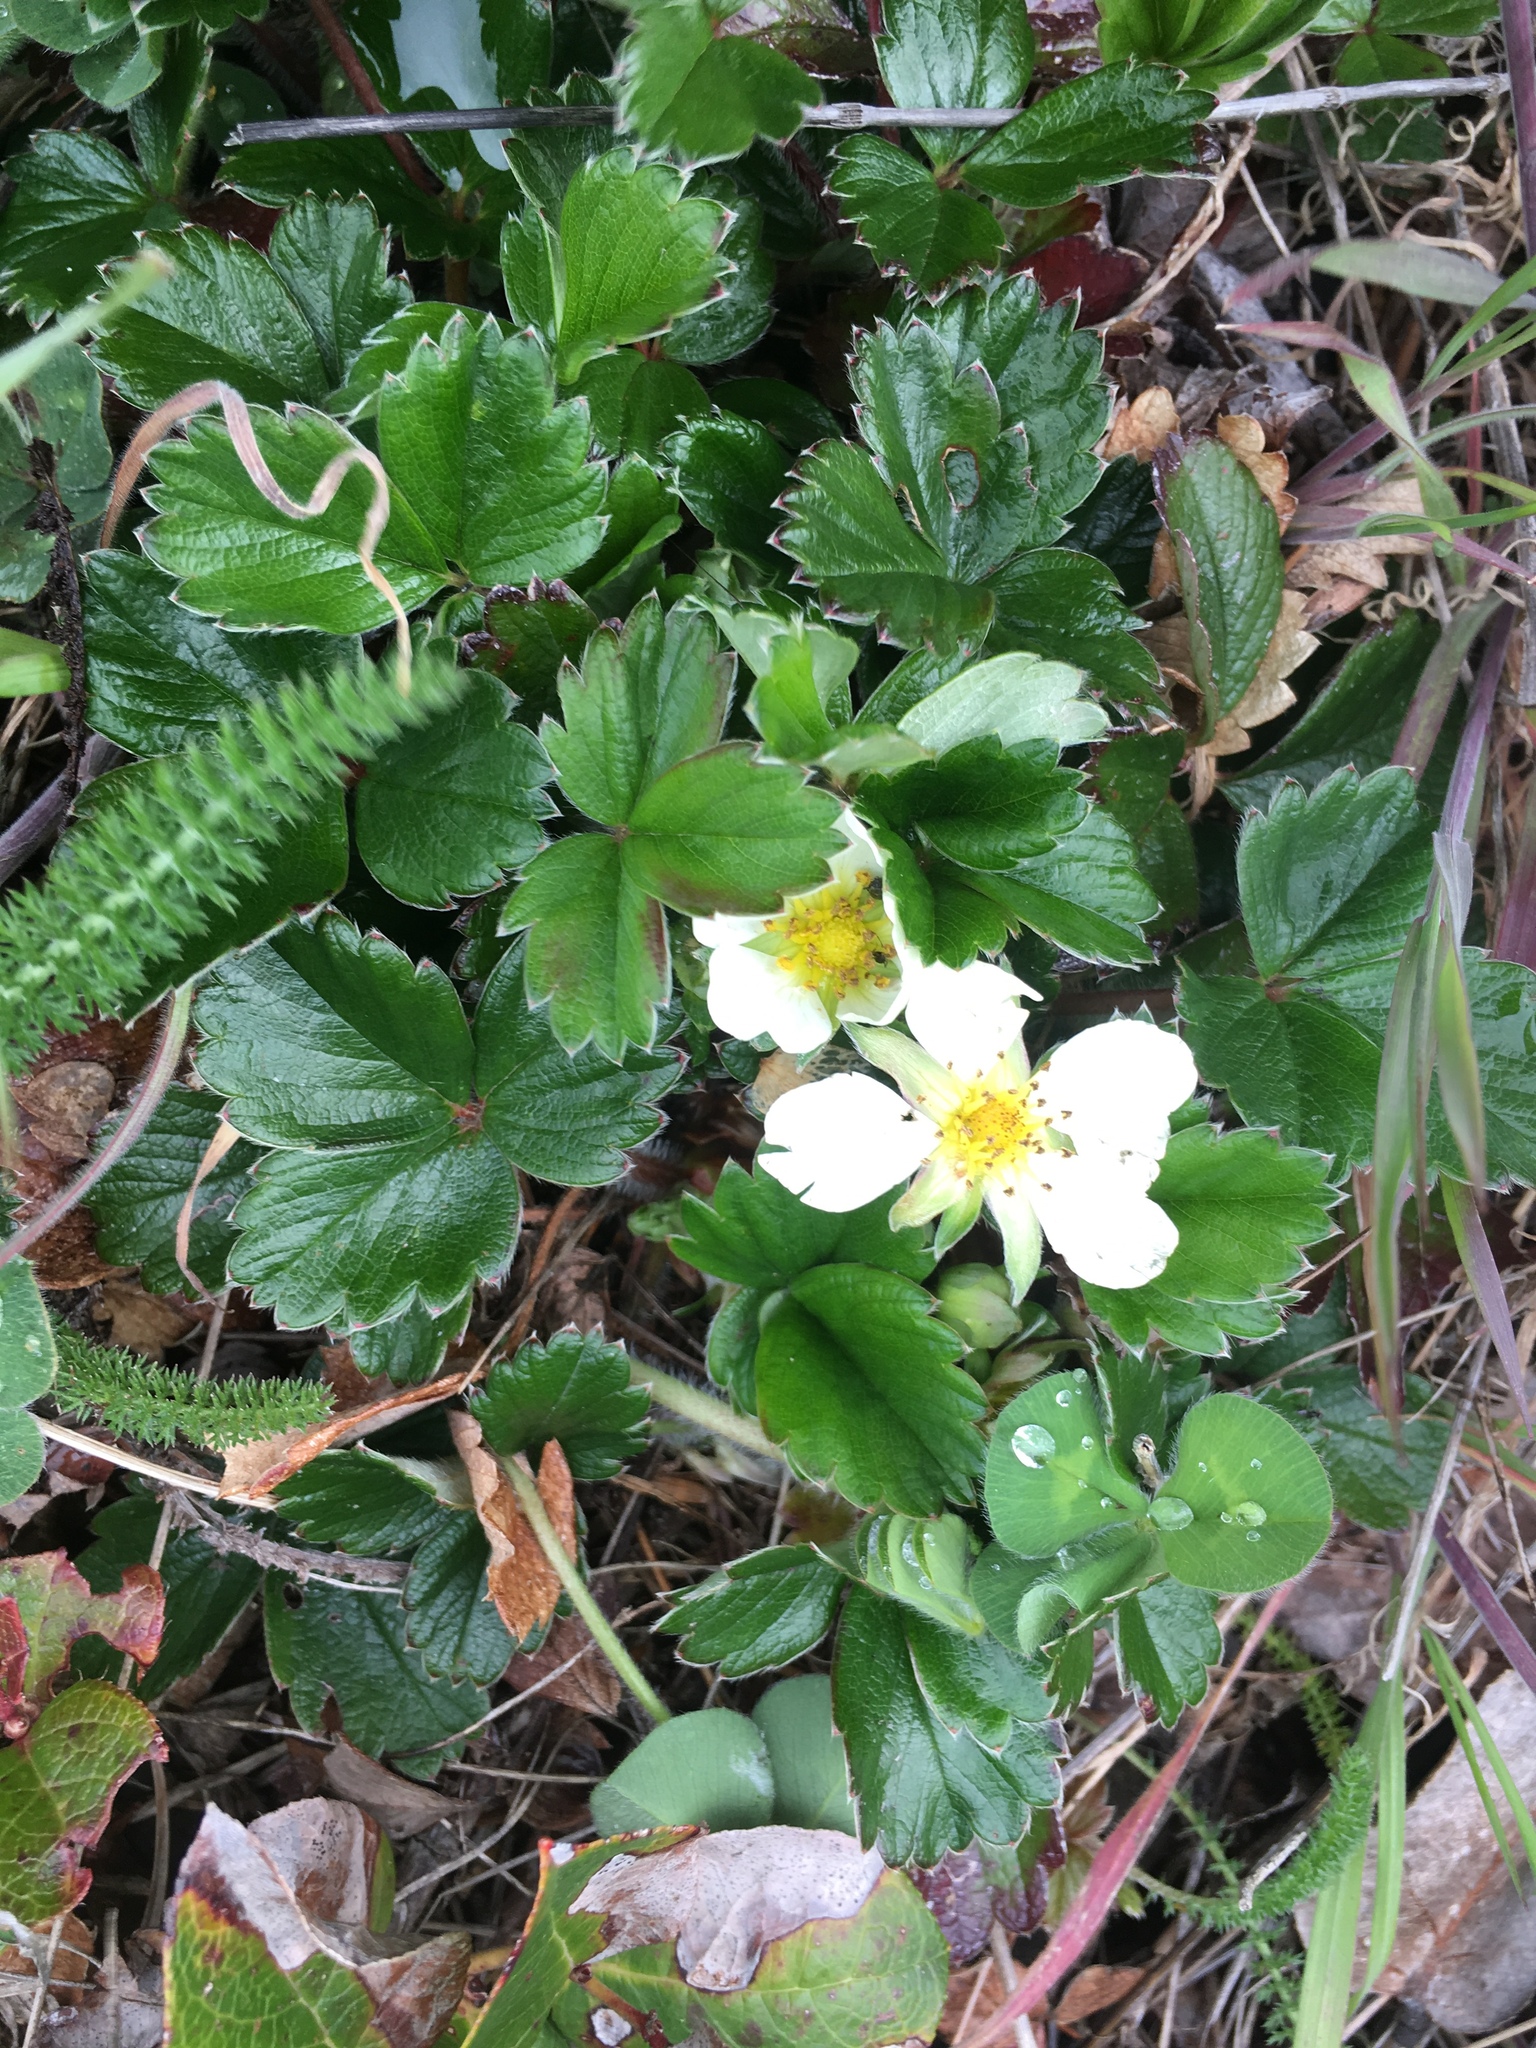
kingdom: Plantae
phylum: Tracheophyta
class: Magnoliopsida
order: Rosales
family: Rosaceae
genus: Fragaria
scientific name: Fragaria chiloensis
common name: Beach strawberry
